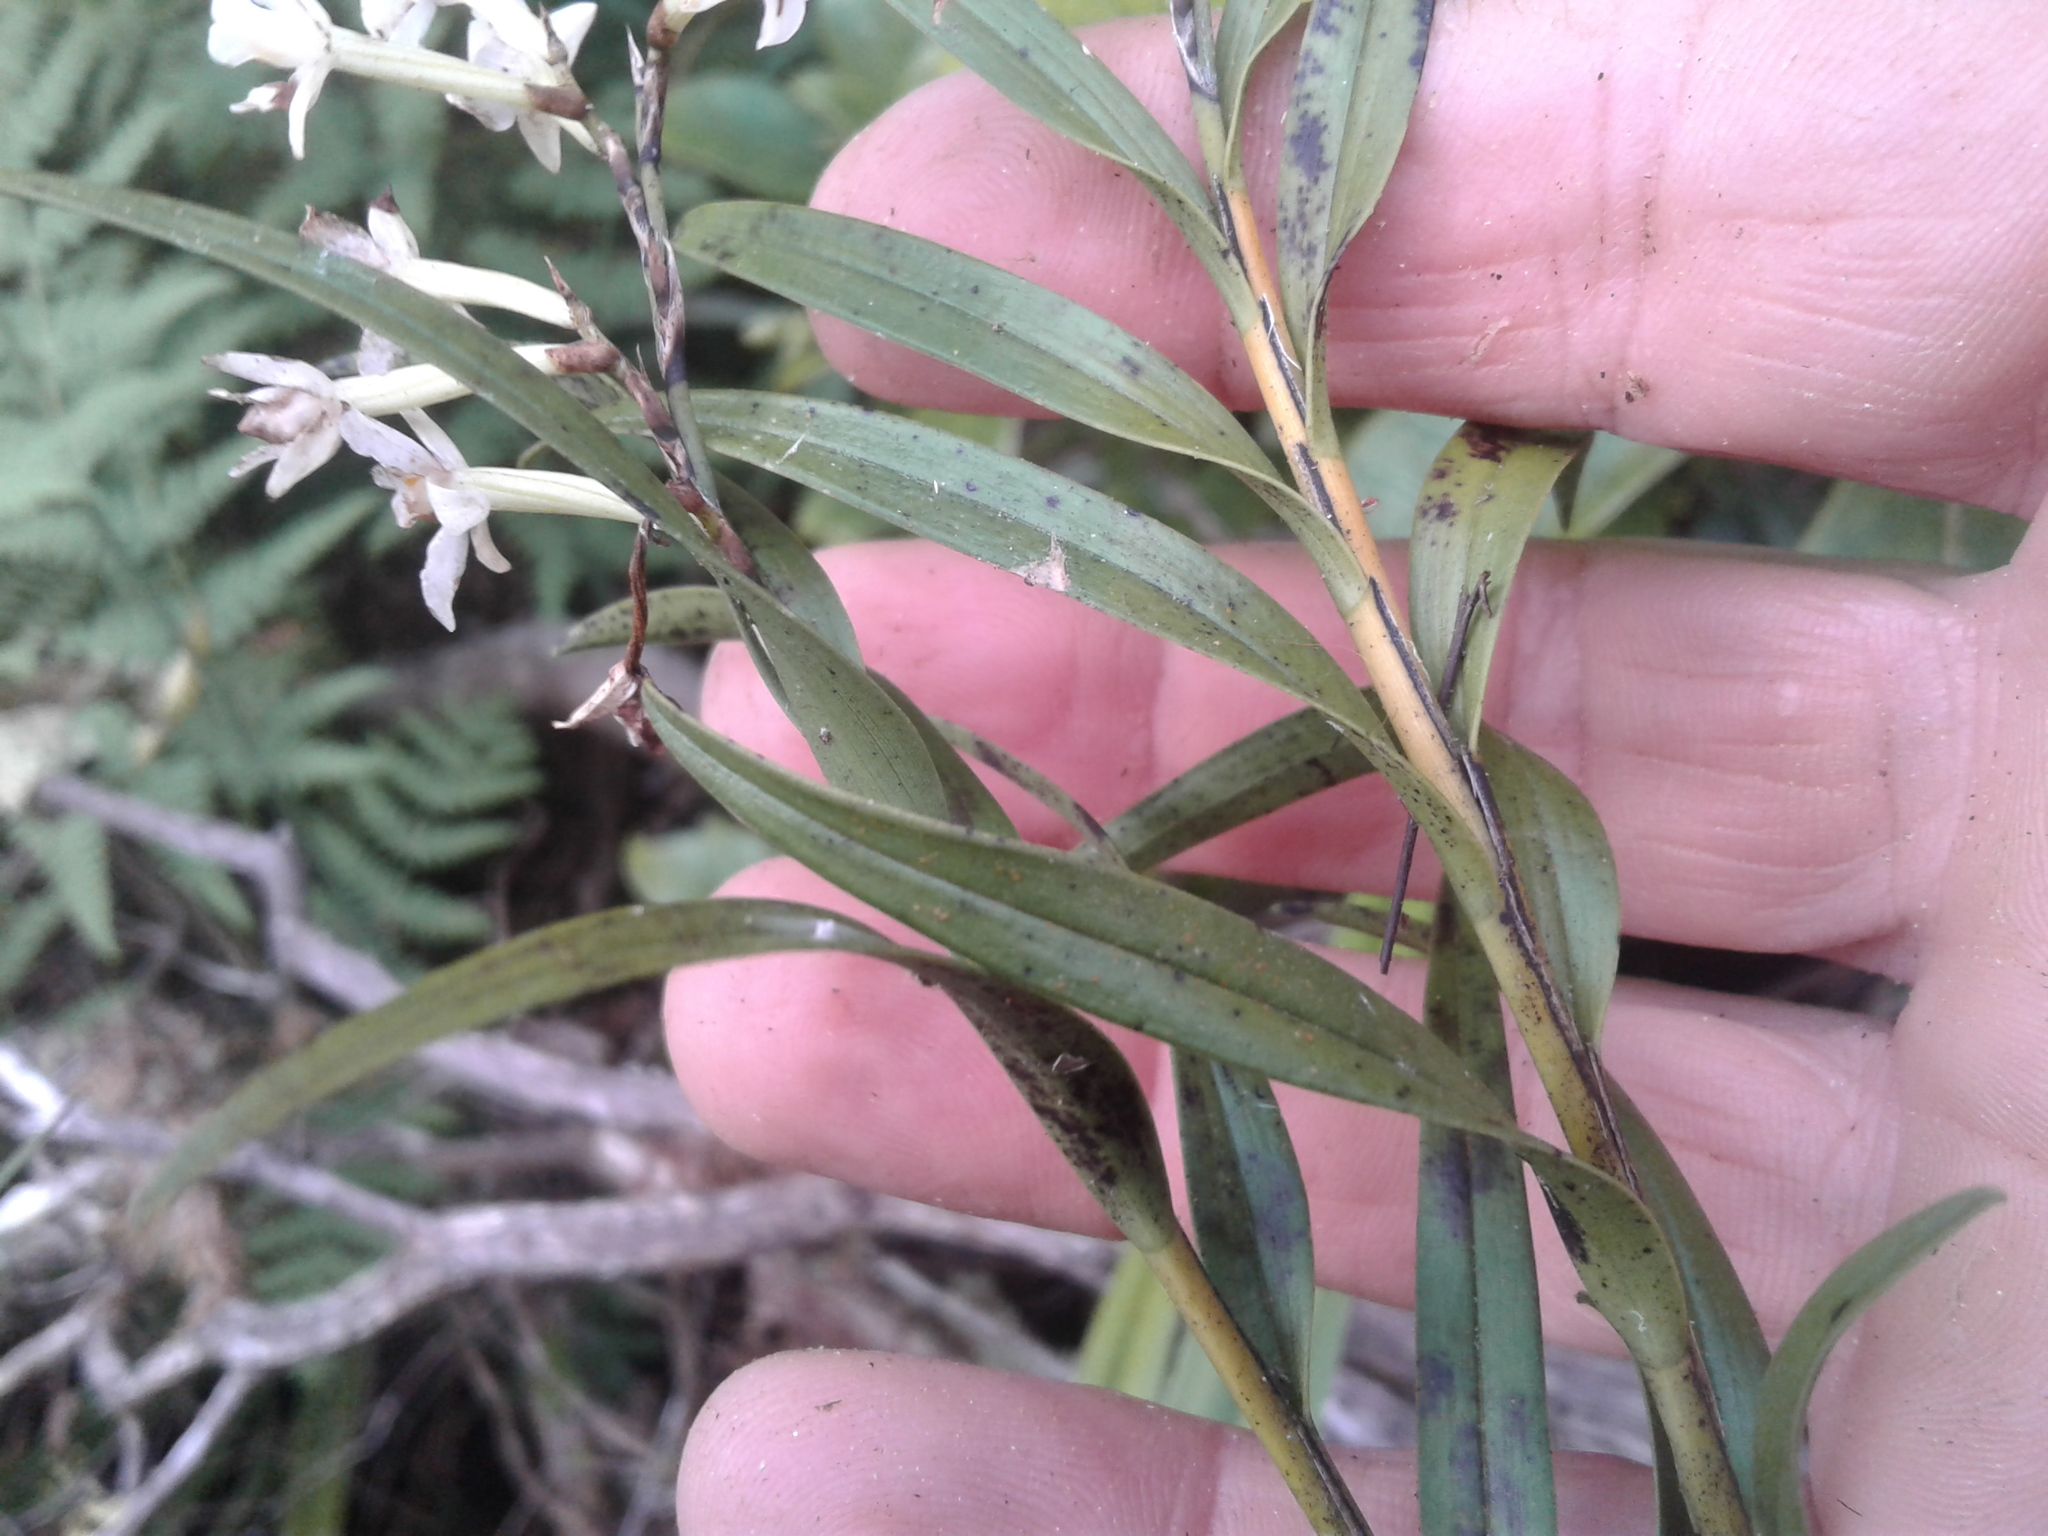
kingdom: Plantae
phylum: Tracheophyta
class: Liliopsida
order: Asparagales
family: Orchidaceae
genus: Earina
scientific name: Earina autumnalis
